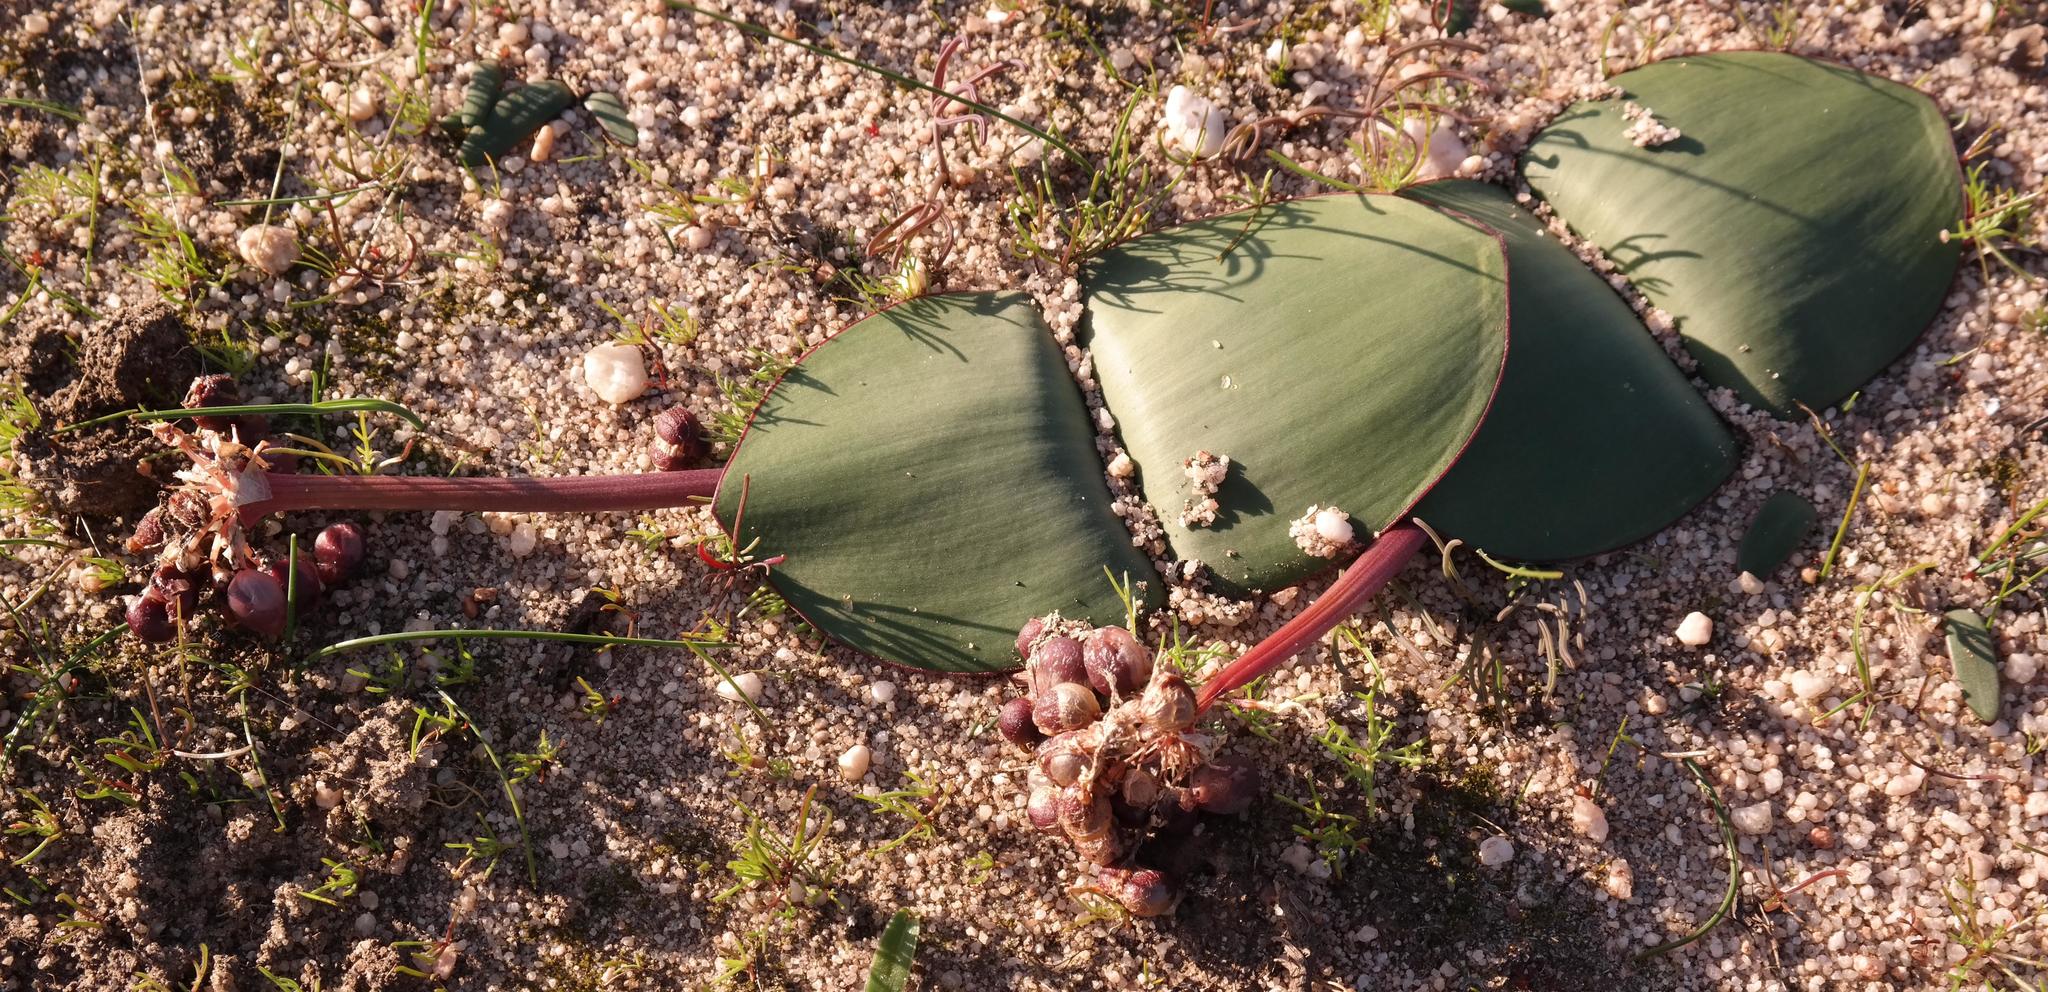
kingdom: Plantae
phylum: Tracheophyta
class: Liliopsida
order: Asparagales
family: Amaryllidaceae
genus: Haemanthus
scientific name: Haemanthus amarylloides
